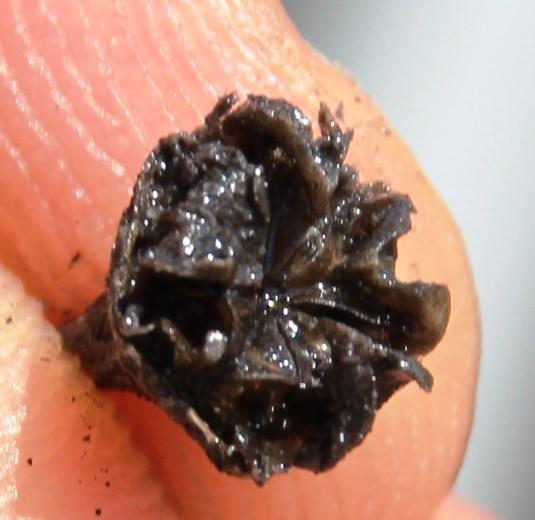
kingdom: Plantae
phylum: Tracheophyta
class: Magnoliopsida
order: Caryophyllales
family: Aizoaceae
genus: Ruschia
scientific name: Ruschia tribracteata
